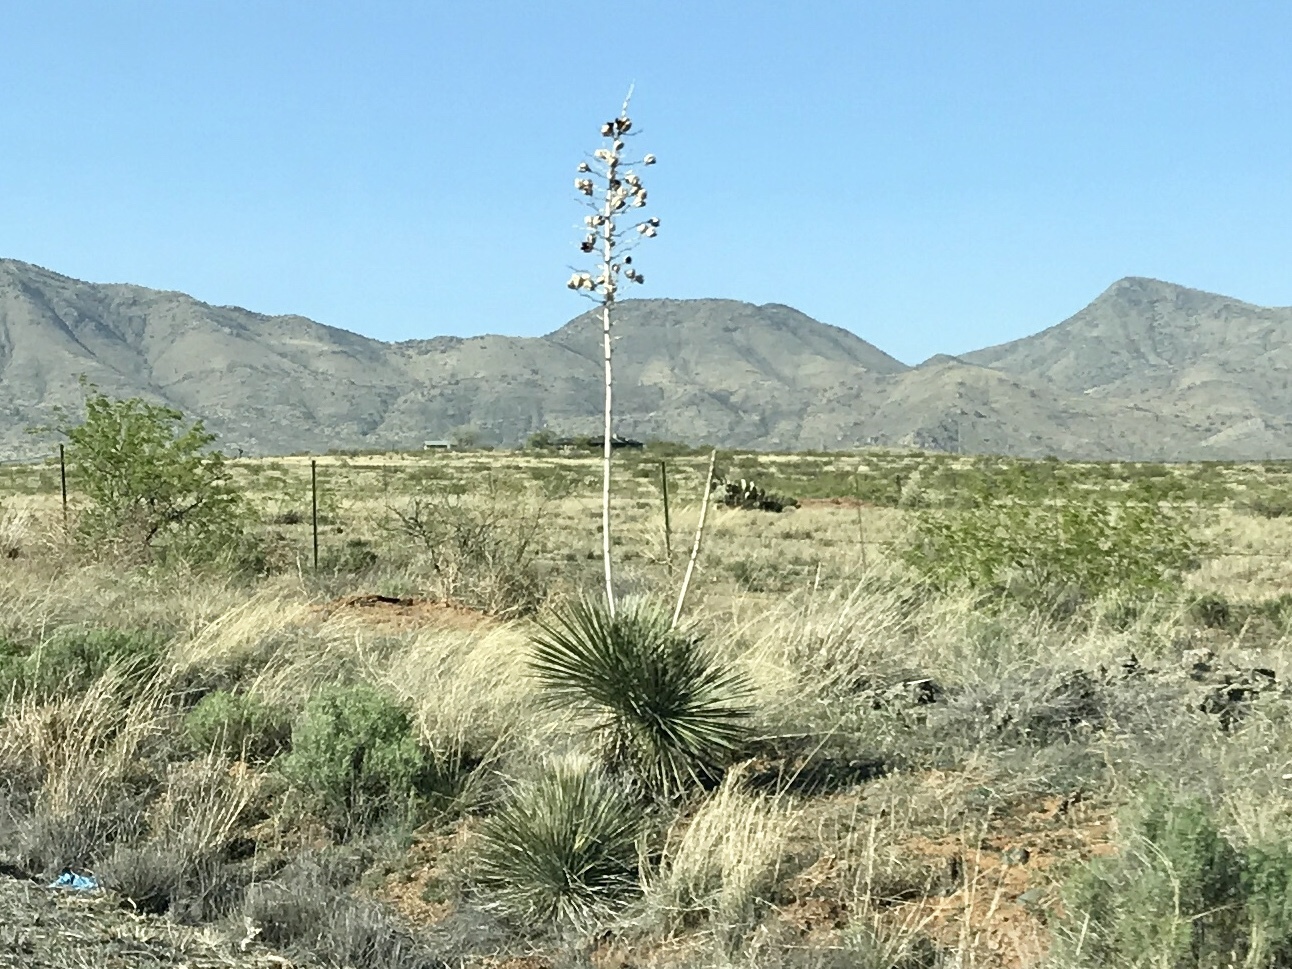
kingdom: Plantae
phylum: Tracheophyta
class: Liliopsida
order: Asparagales
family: Asparagaceae
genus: Yucca
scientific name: Yucca elata
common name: Palmella
